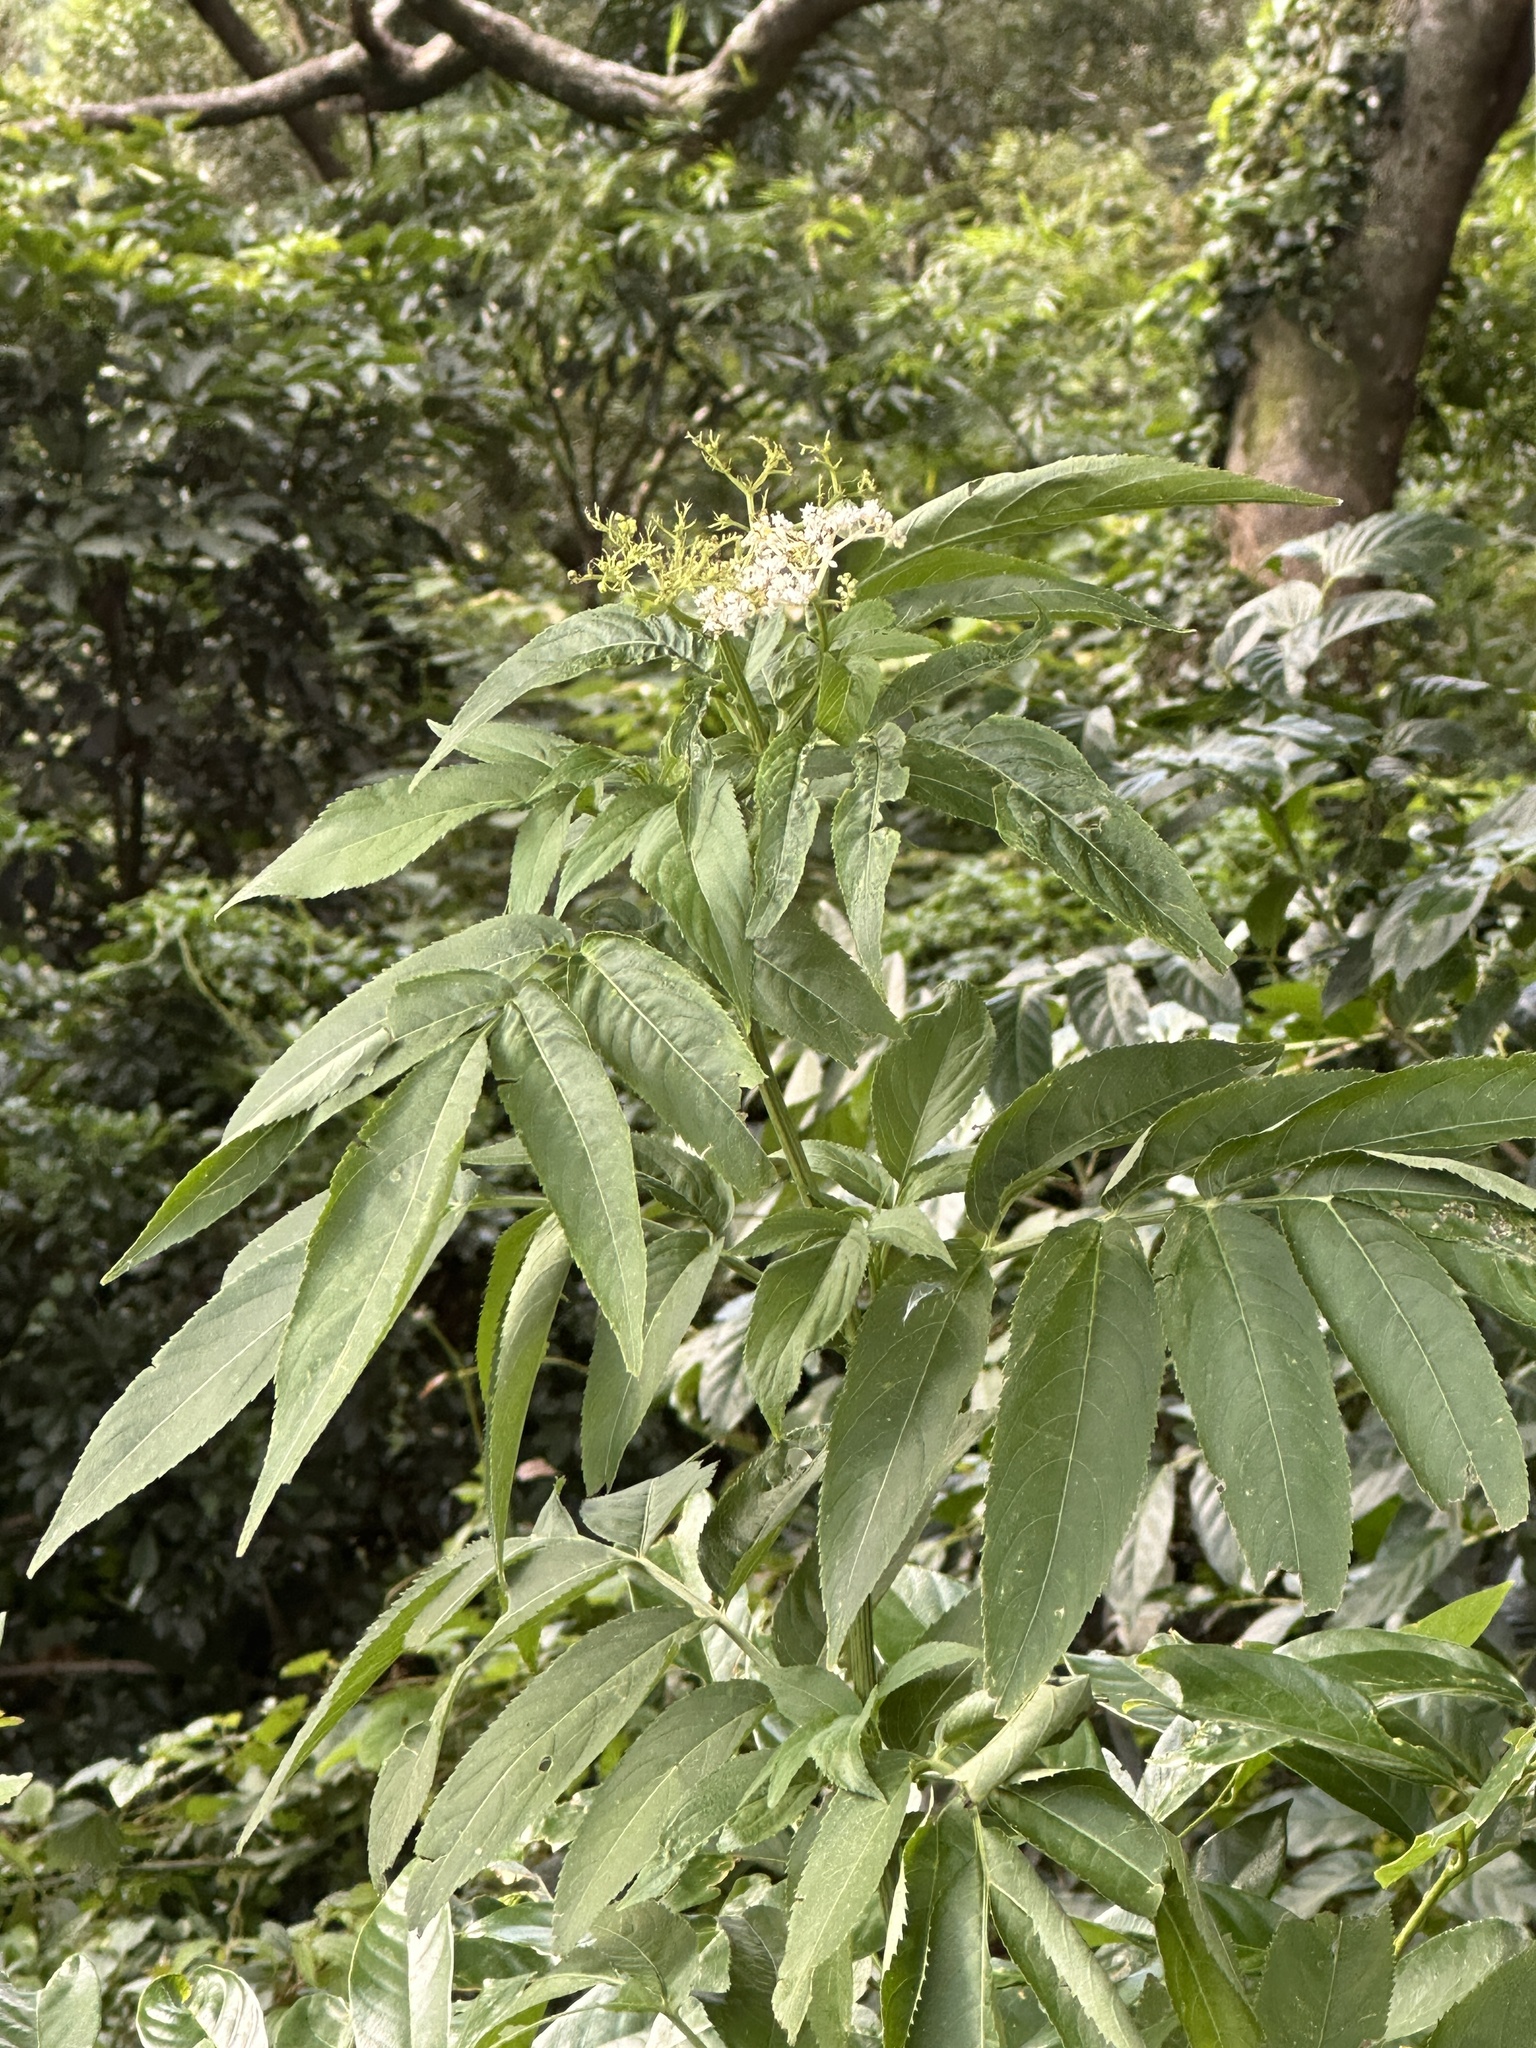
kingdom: Plantae
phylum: Tracheophyta
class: Magnoliopsida
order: Dipsacales
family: Viburnaceae
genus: Sambucus
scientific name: Sambucus javanica
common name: Chinese elder
